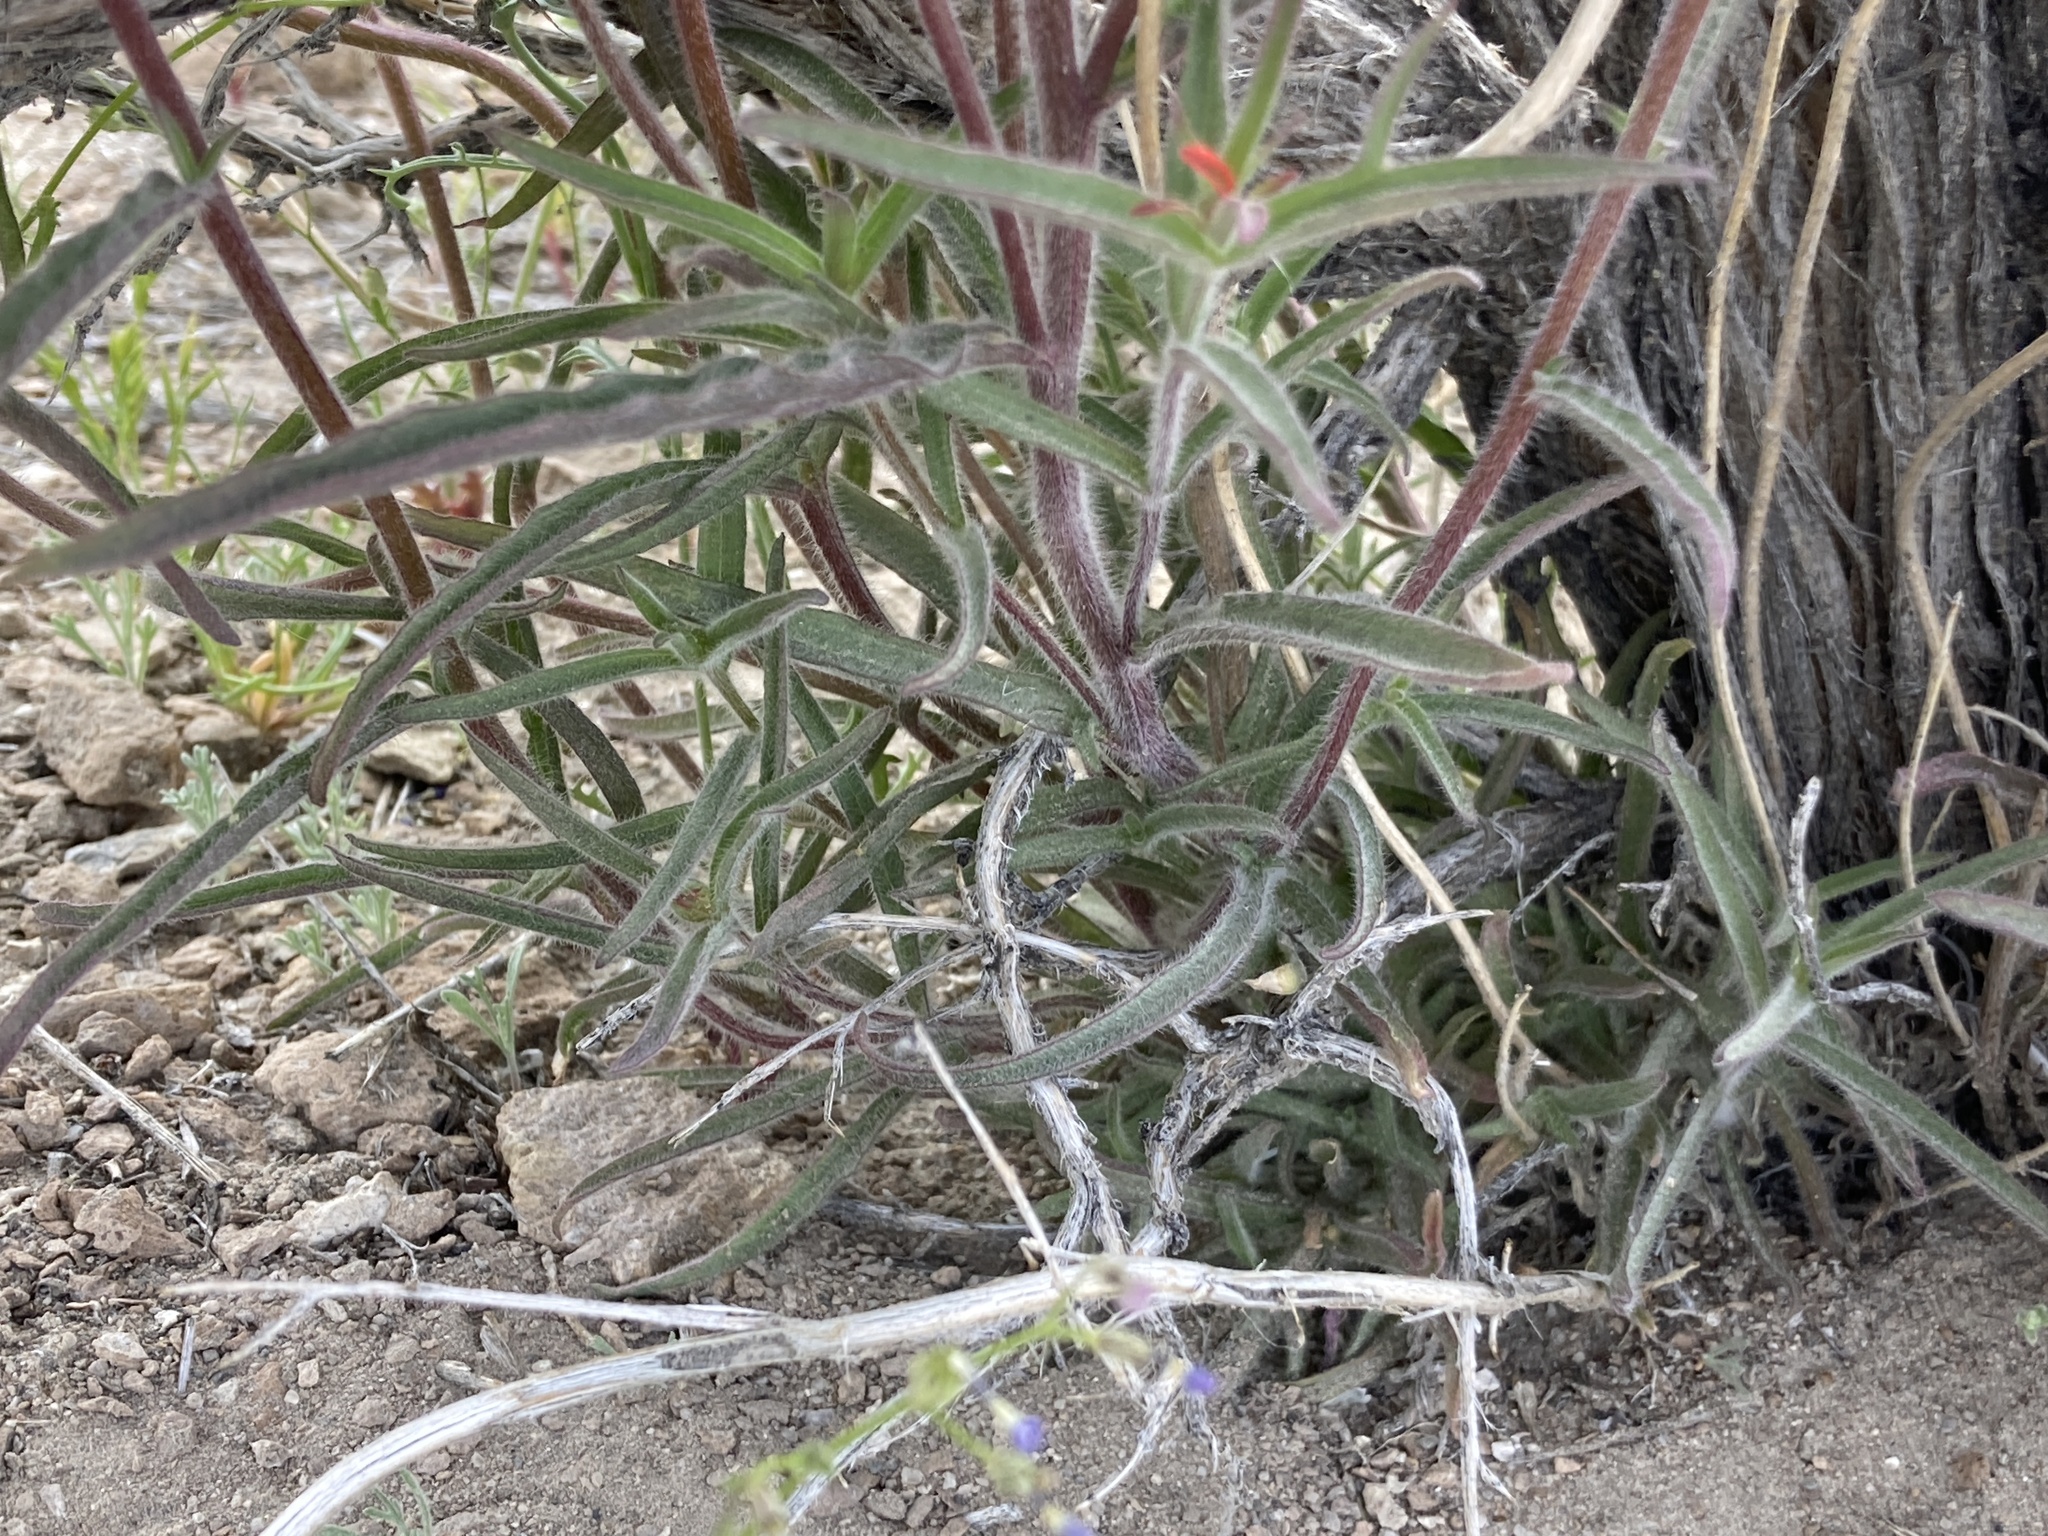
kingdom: Plantae
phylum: Tracheophyta
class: Magnoliopsida
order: Lamiales
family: Orobanchaceae
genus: Castilleja
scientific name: Castilleja chromosa
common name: Desert paintbrush
